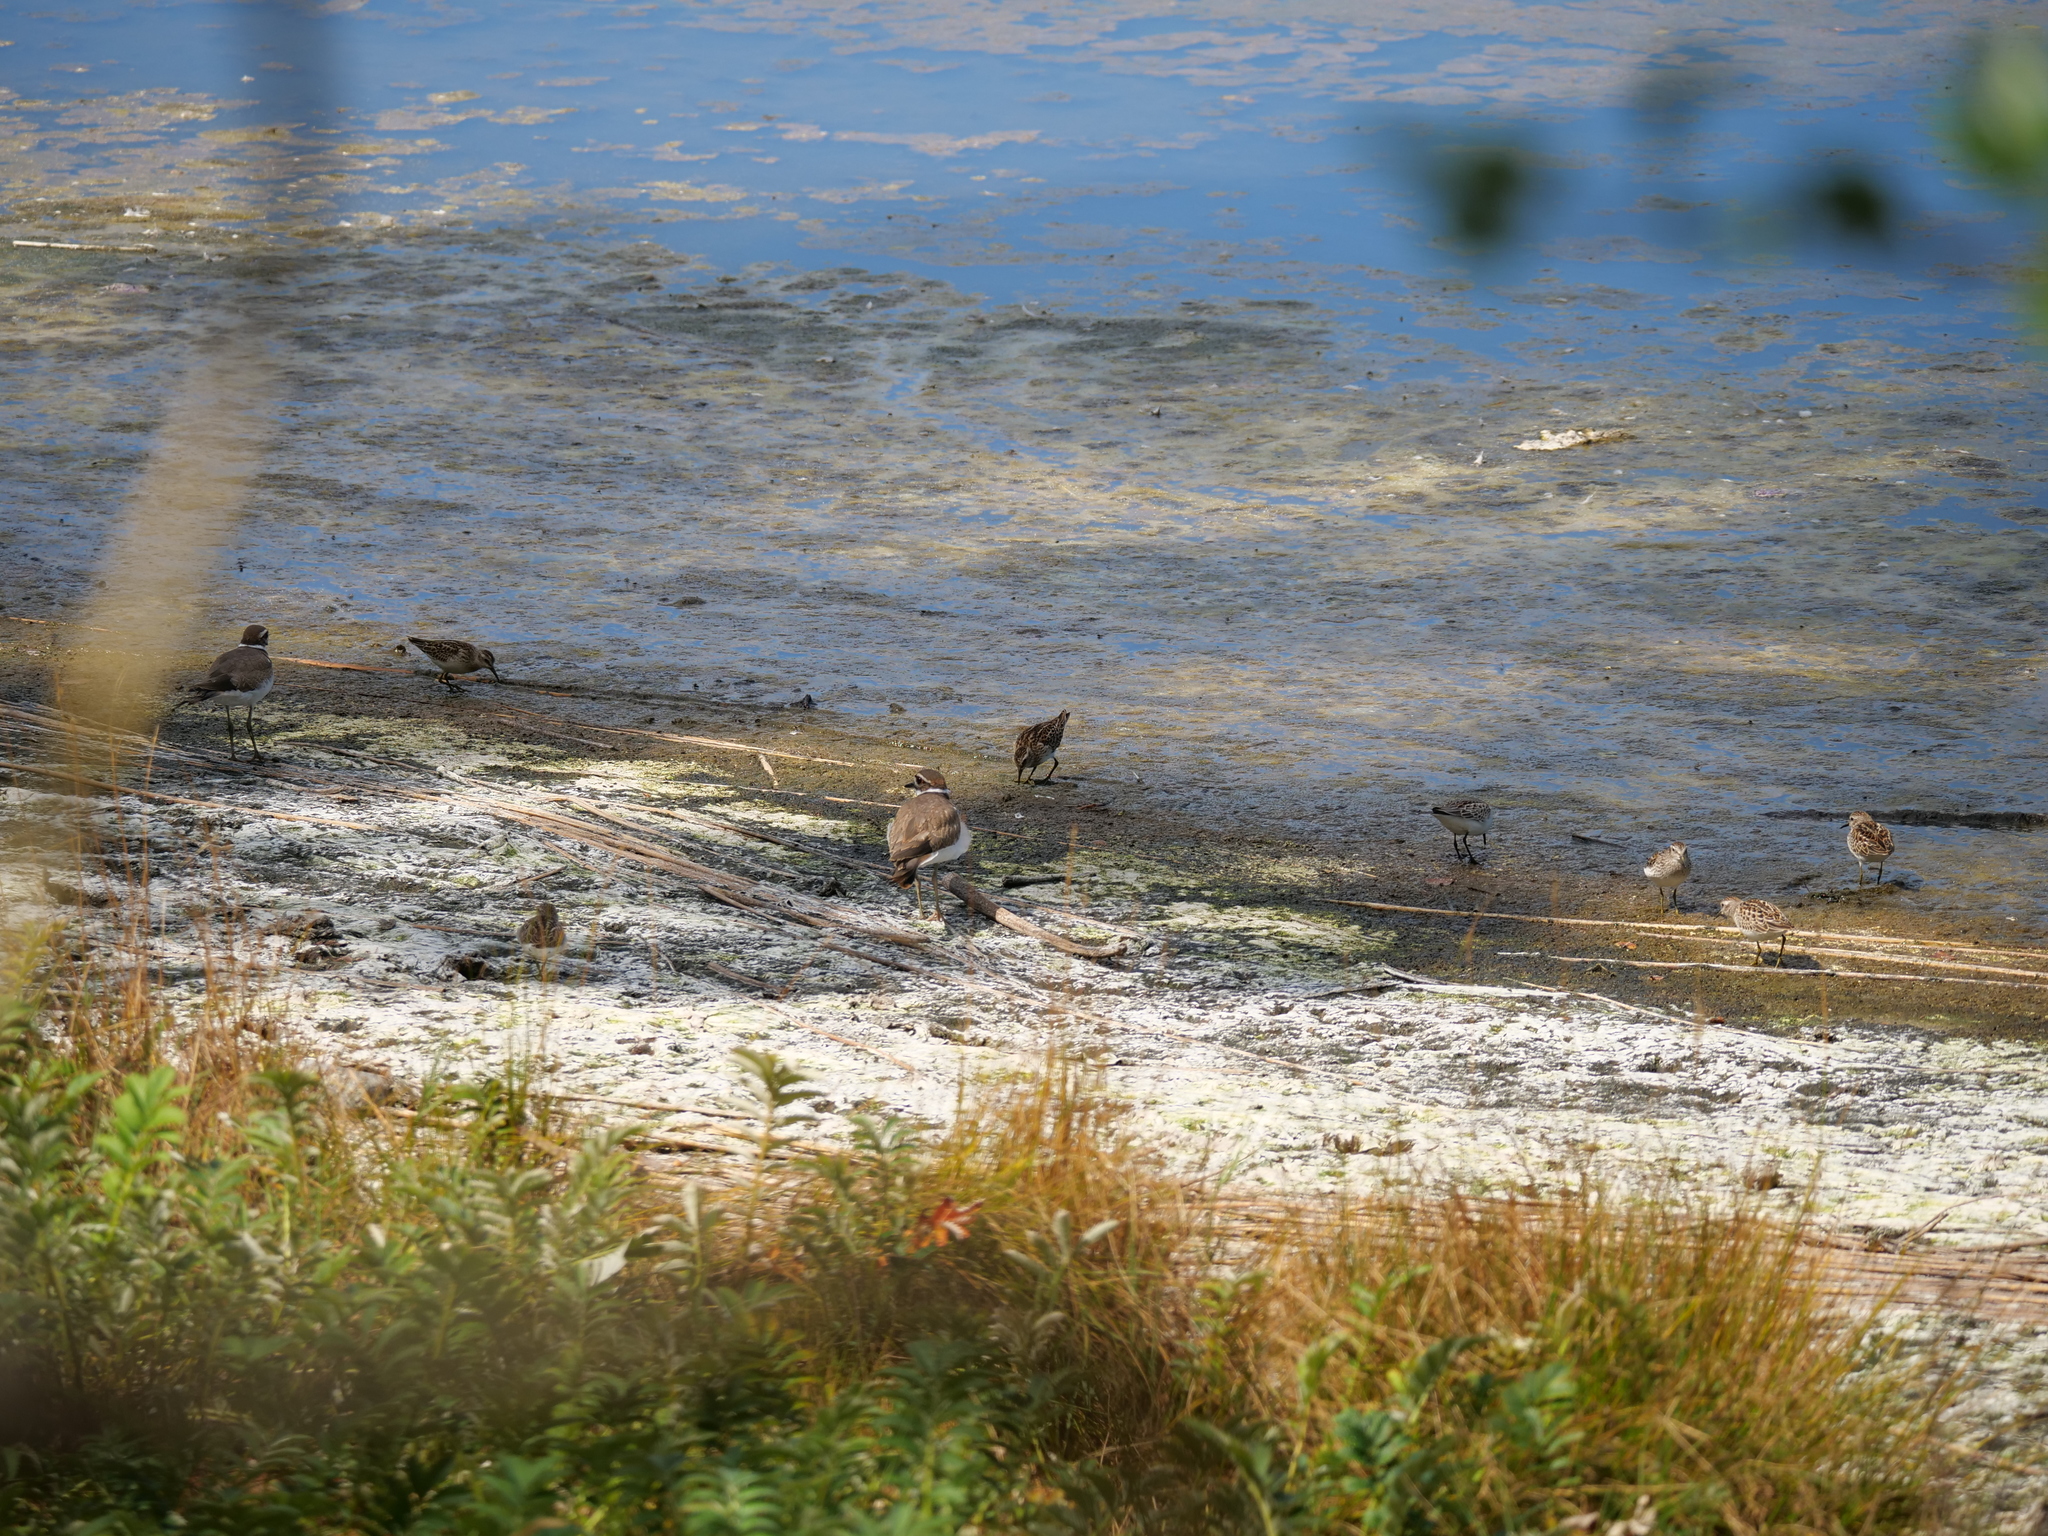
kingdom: Animalia
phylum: Chordata
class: Aves
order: Charadriiformes
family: Scolopacidae
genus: Calidris
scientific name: Calidris minutilla
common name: Least sandpiper
